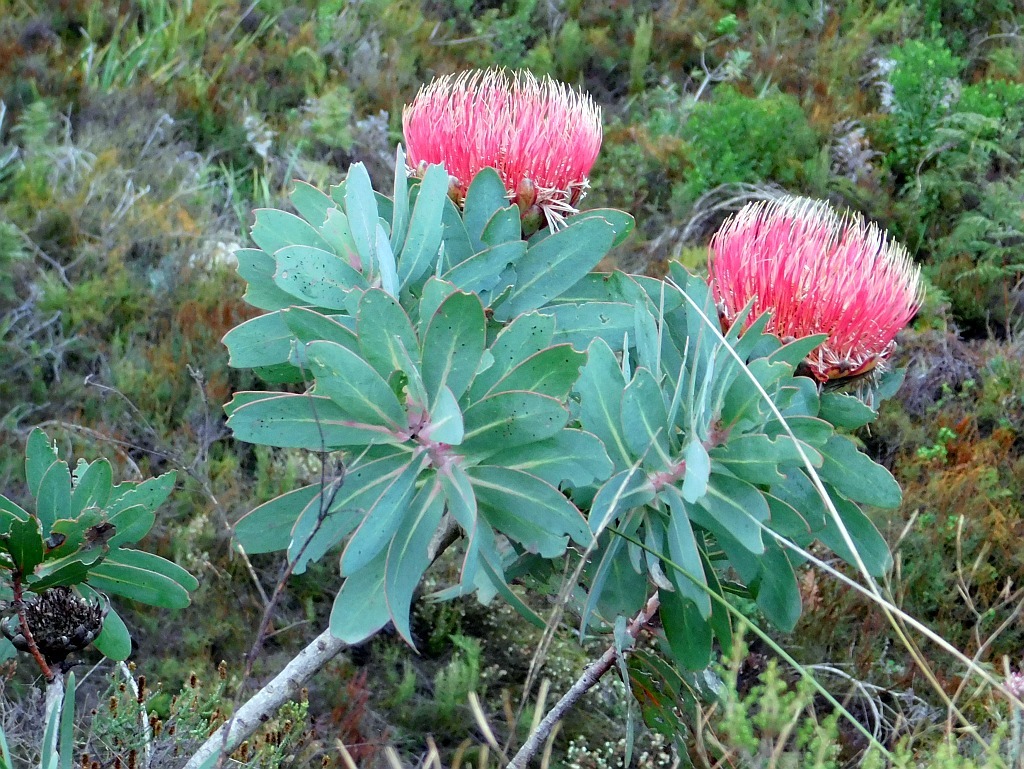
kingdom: Plantae
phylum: Tracheophyta
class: Magnoliopsida
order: Proteales
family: Proteaceae
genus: Protea
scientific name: Protea nitida
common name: Tree protea
